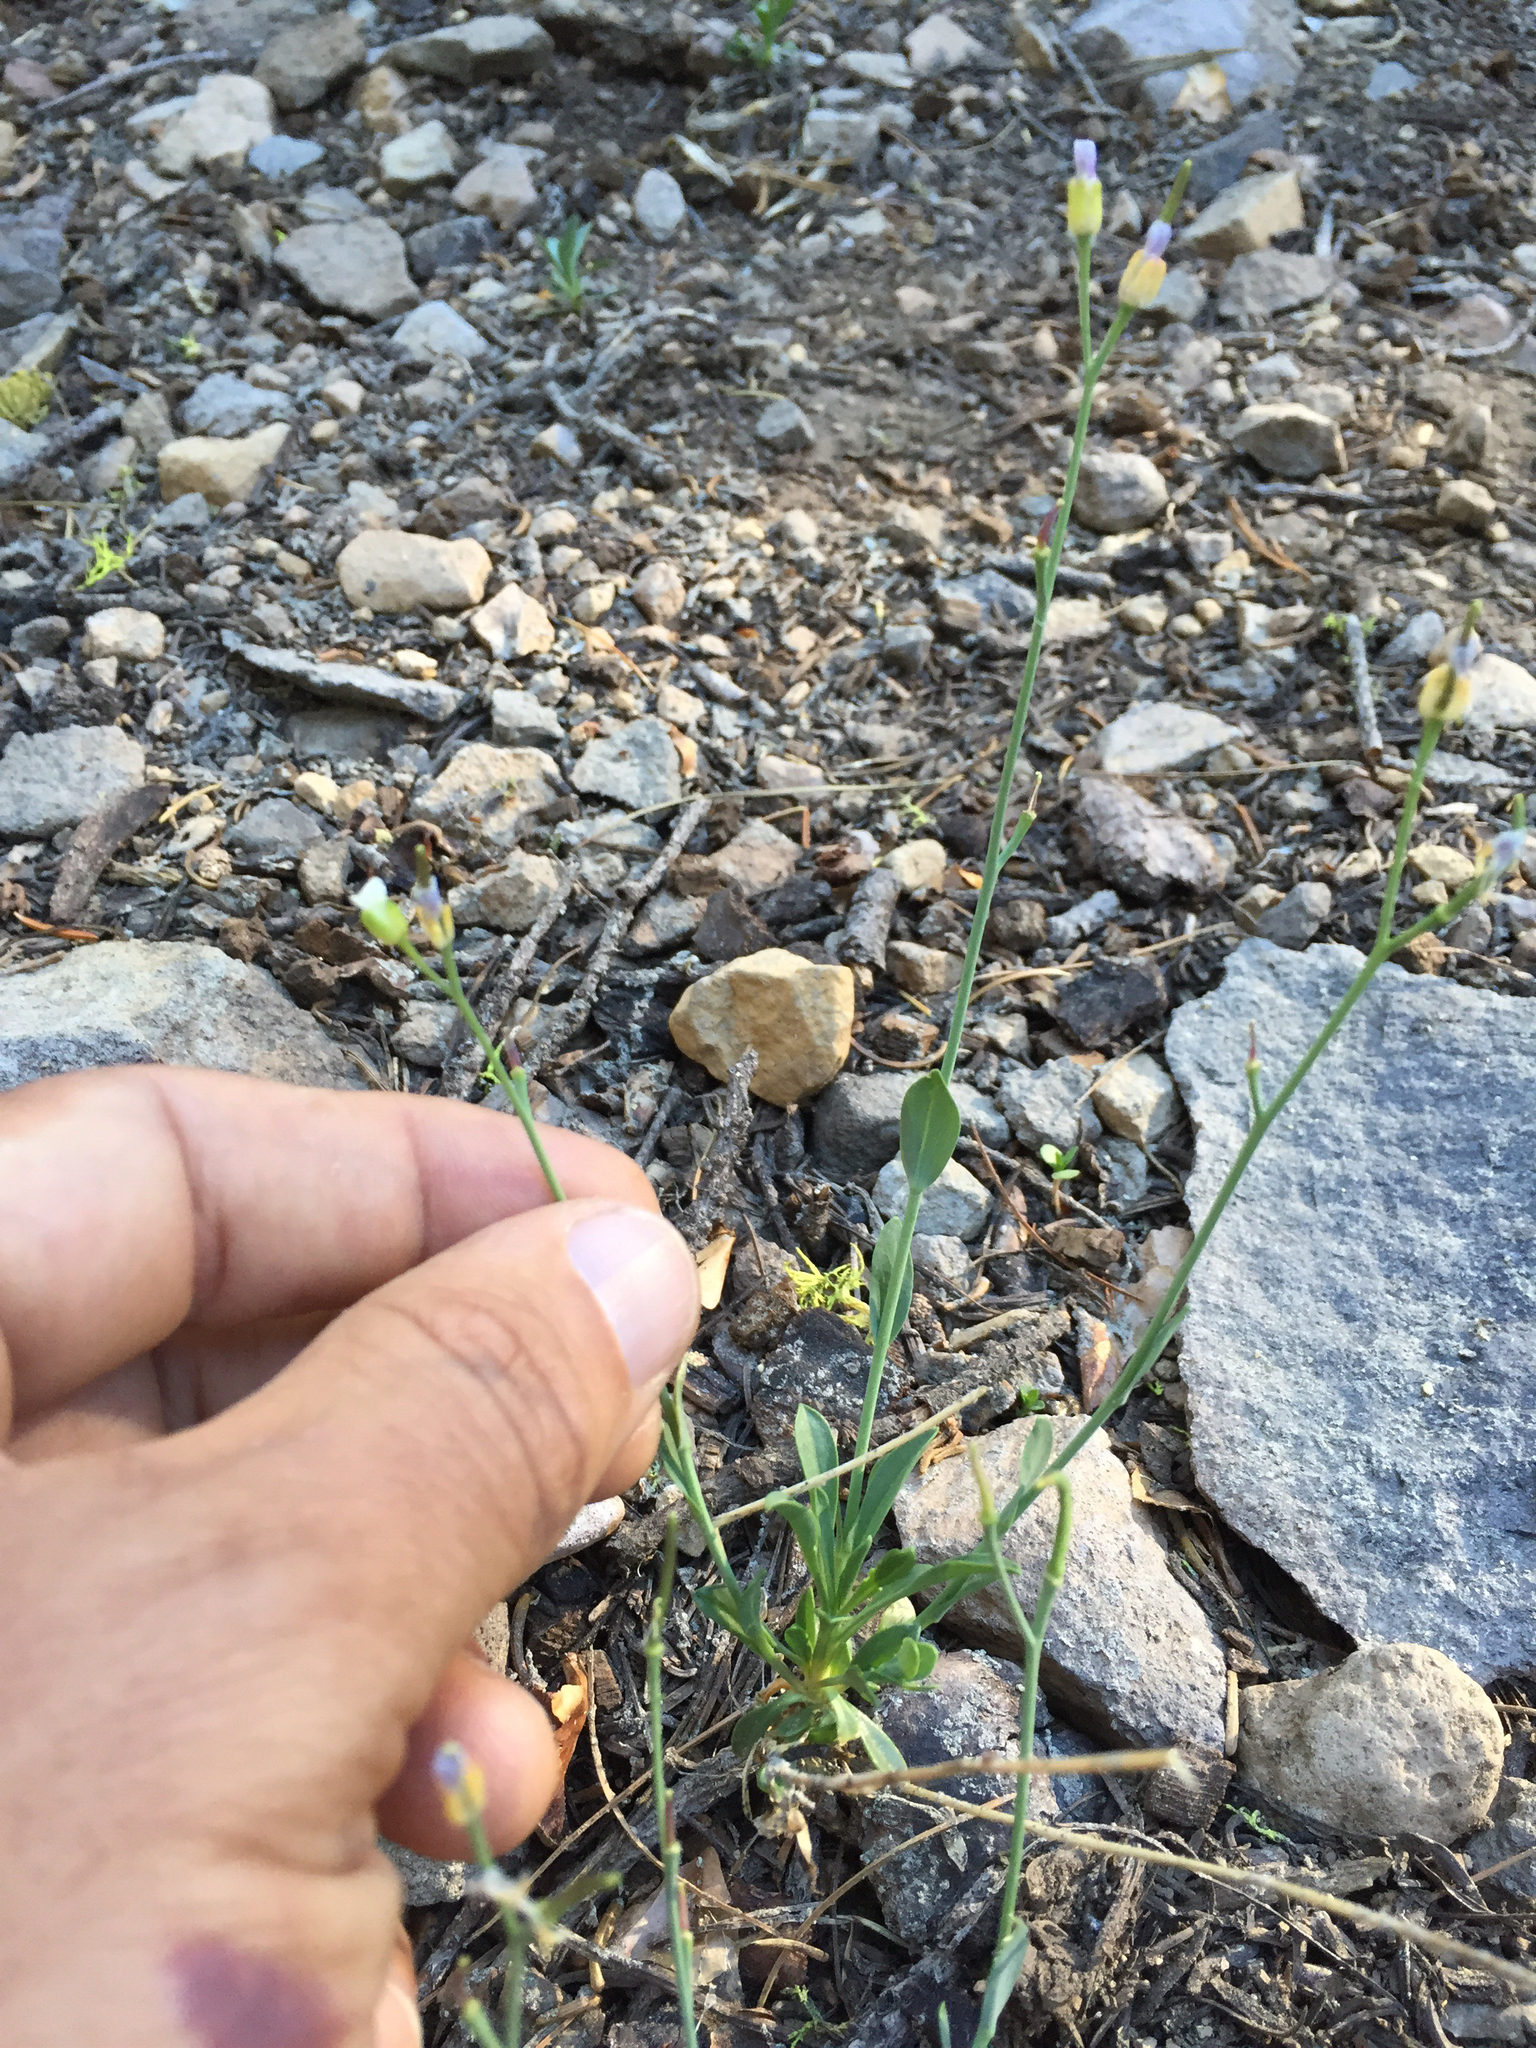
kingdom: Plantae
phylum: Tracheophyta
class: Magnoliopsida
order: Brassicales
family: Brassicaceae
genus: Boechera
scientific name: Boechera howellii
